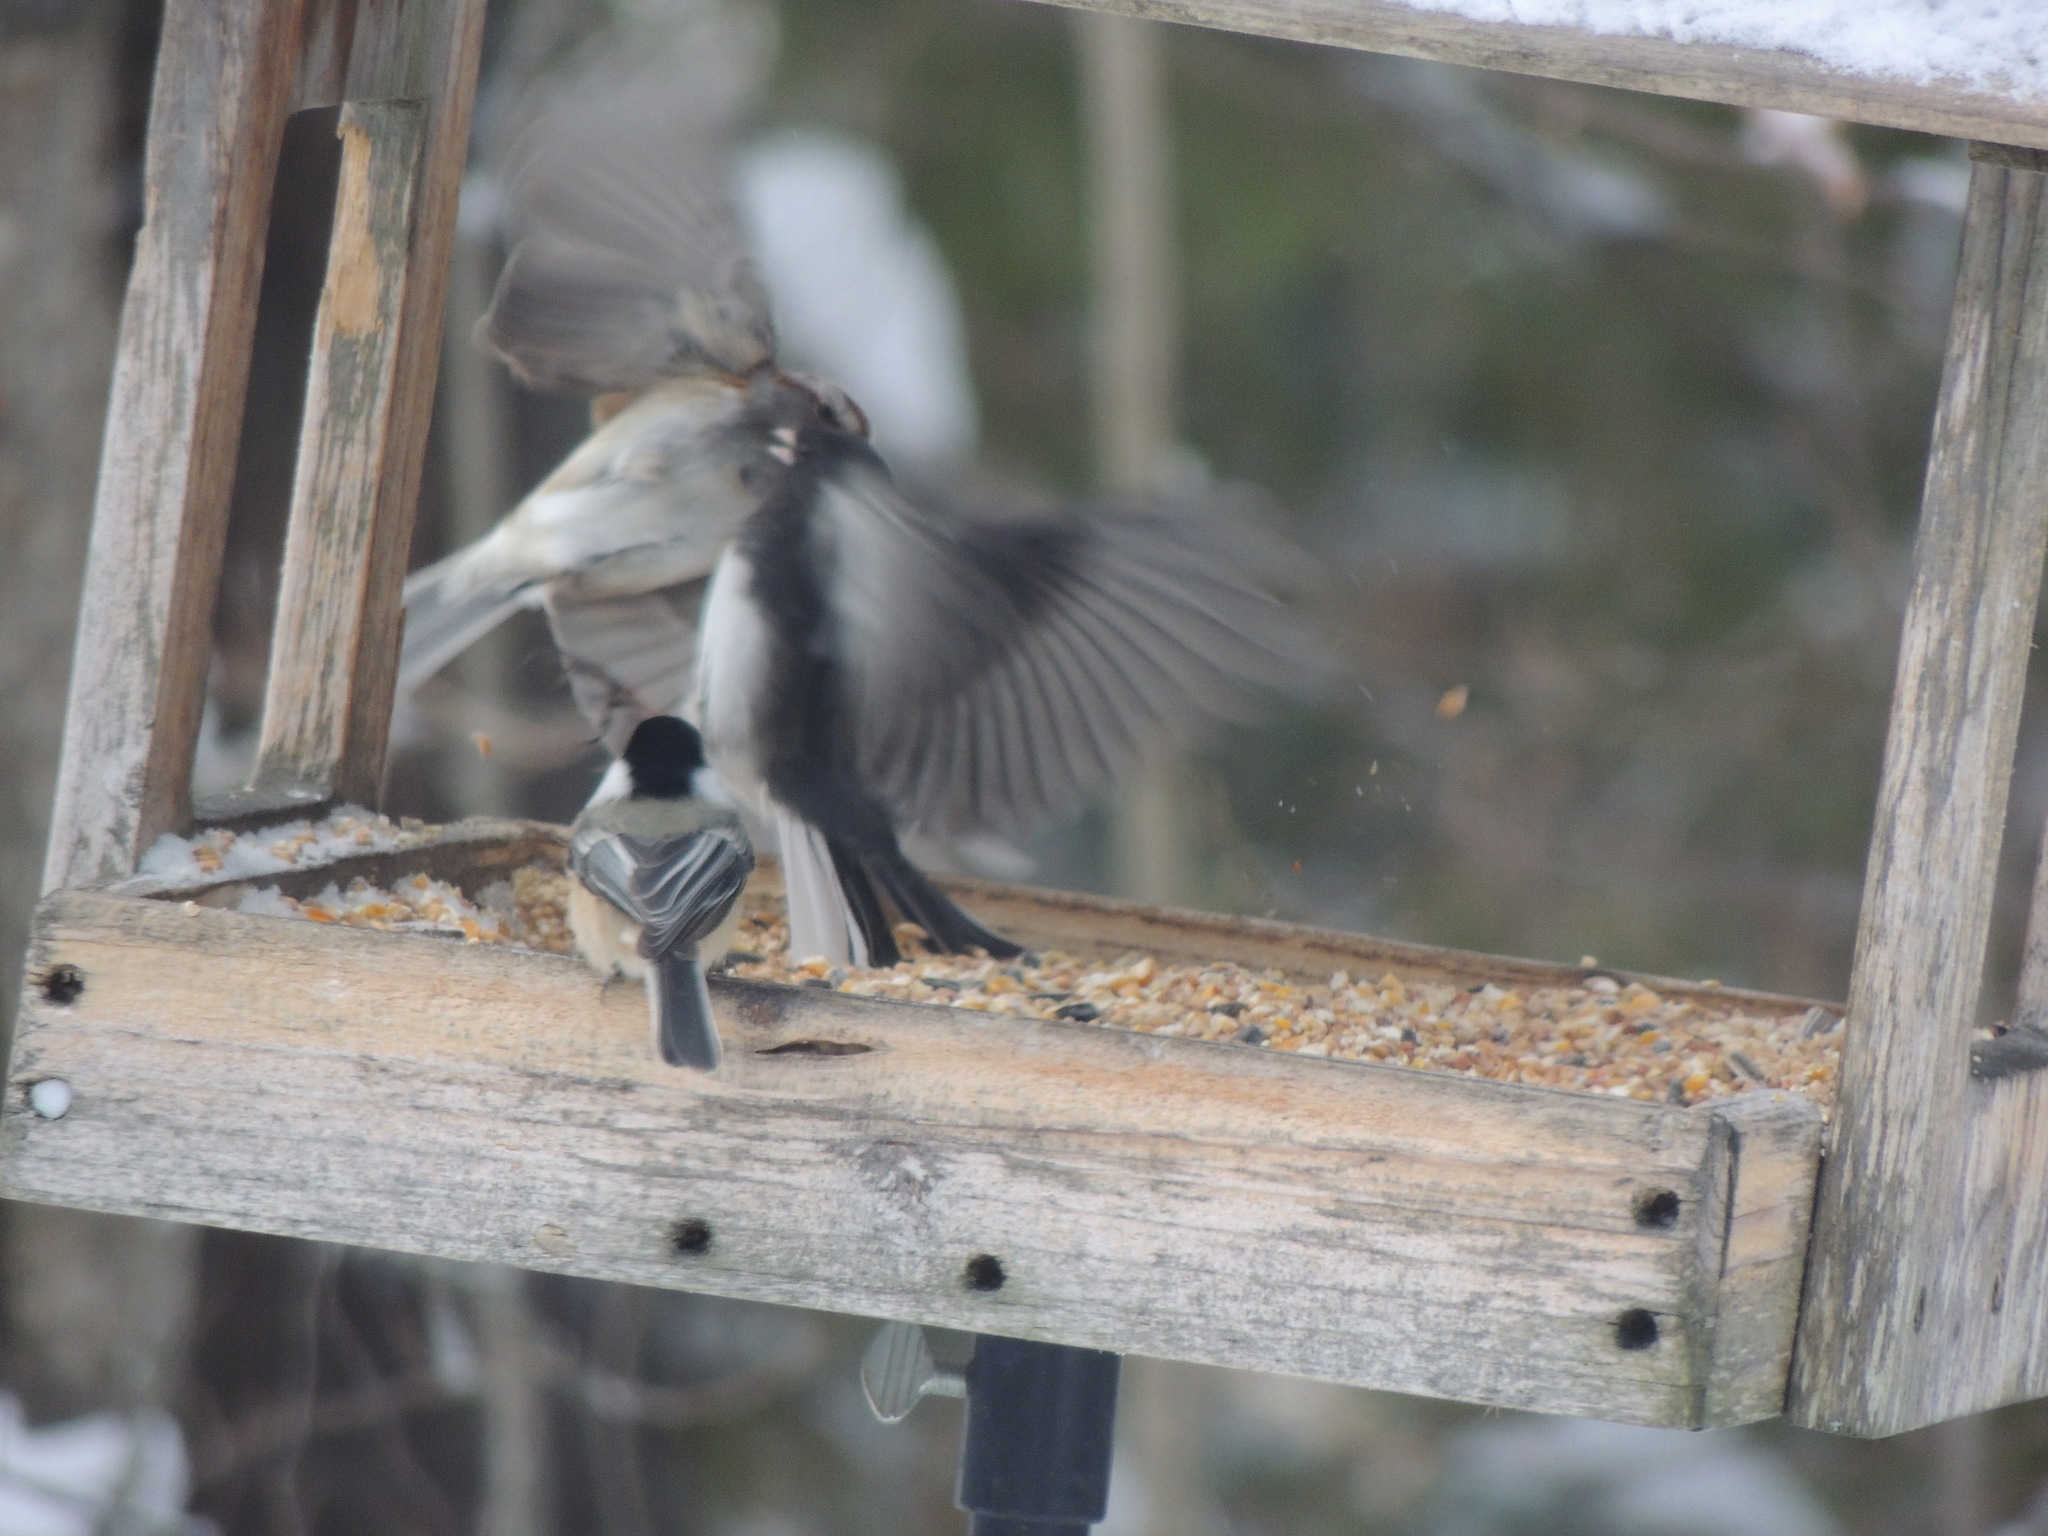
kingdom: Animalia
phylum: Chordata
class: Aves
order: Passeriformes
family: Paridae
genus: Poecile
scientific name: Poecile atricapillus
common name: Black-capped chickadee
